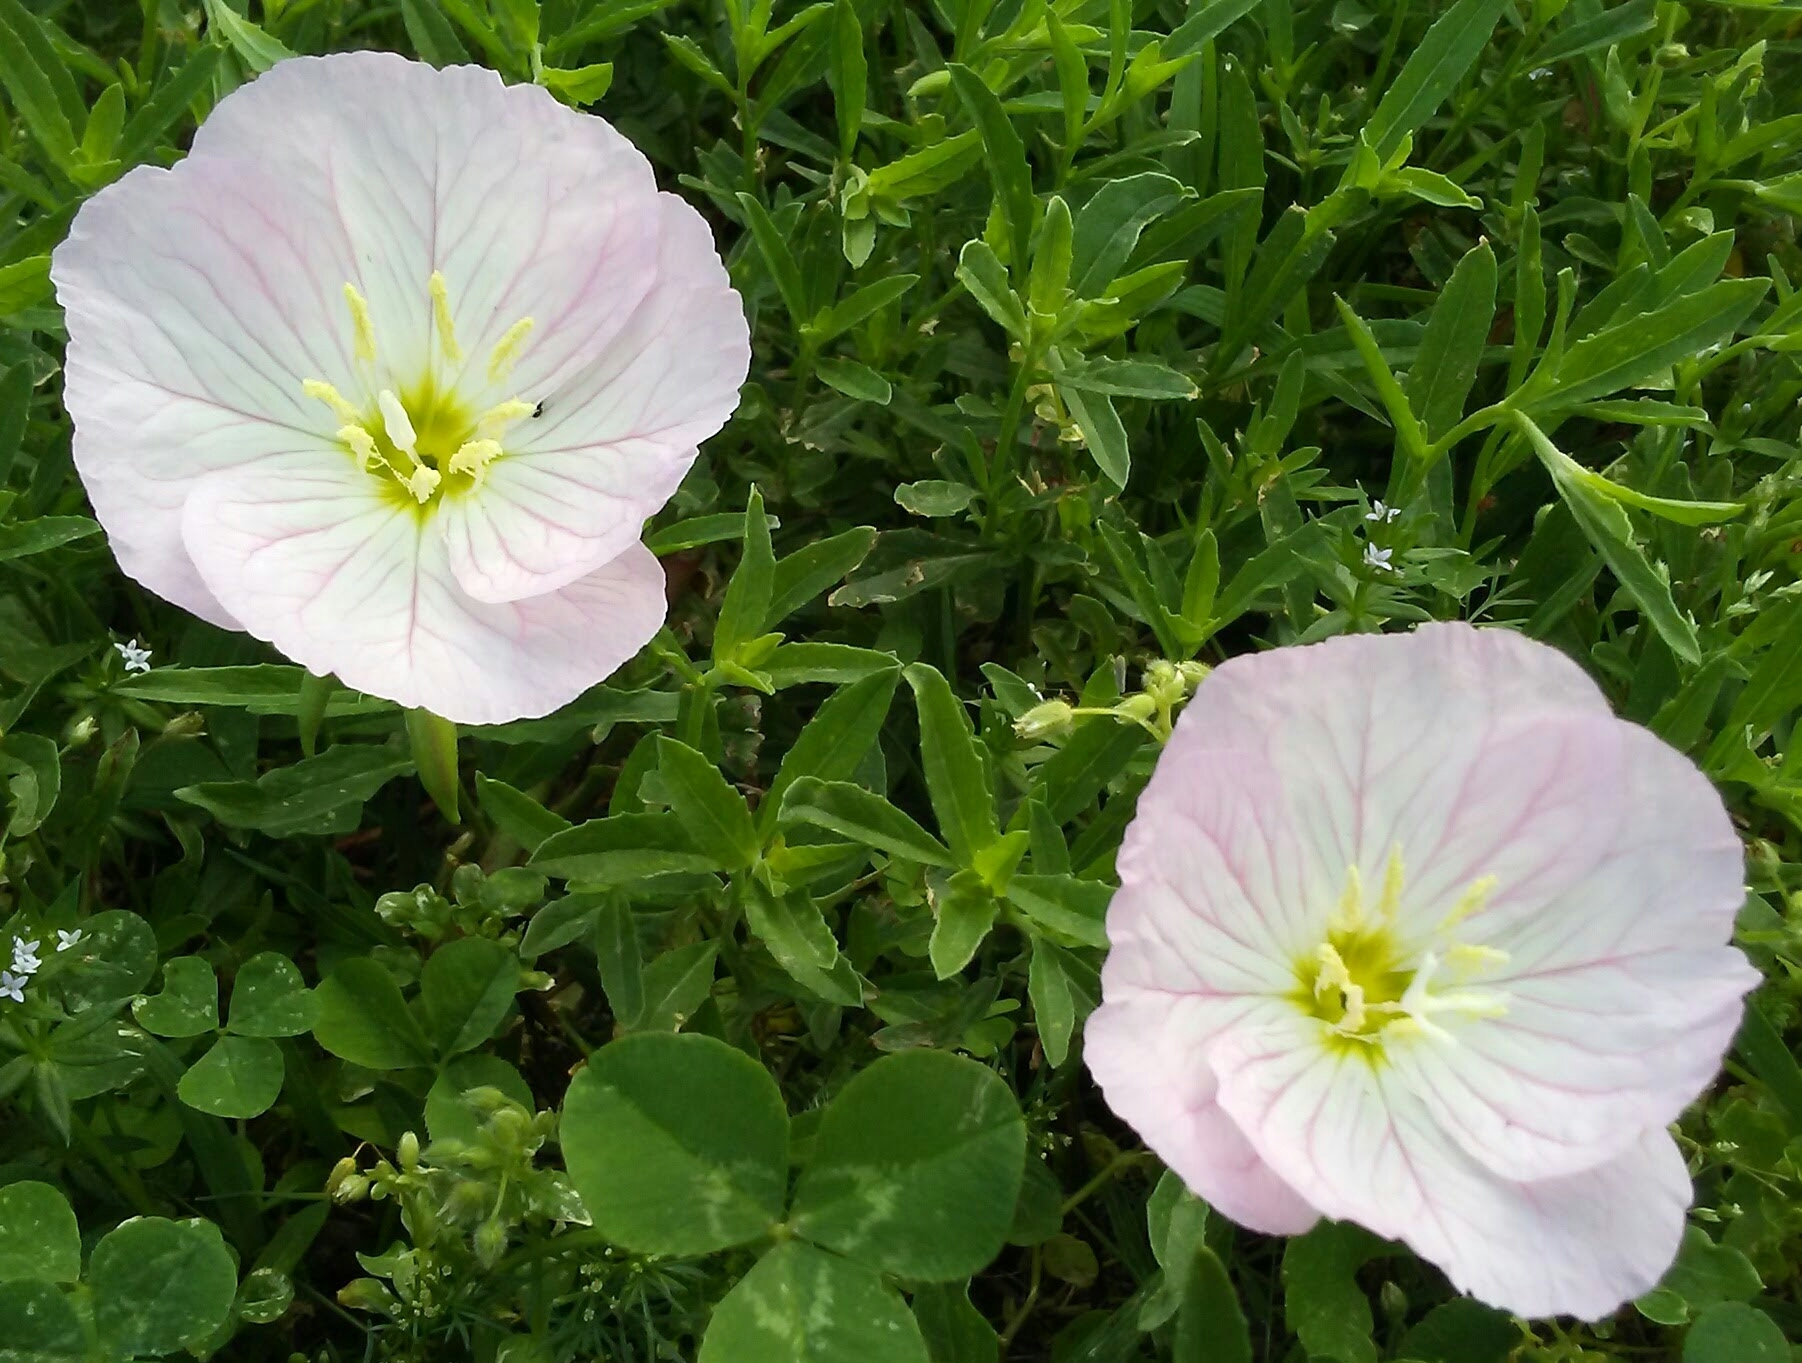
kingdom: Plantae
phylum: Tracheophyta
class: Magnoliopsida
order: Myrtales
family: Onagraceae
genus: Oenothera
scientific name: Oenothera speciosa
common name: White evening-primrose
